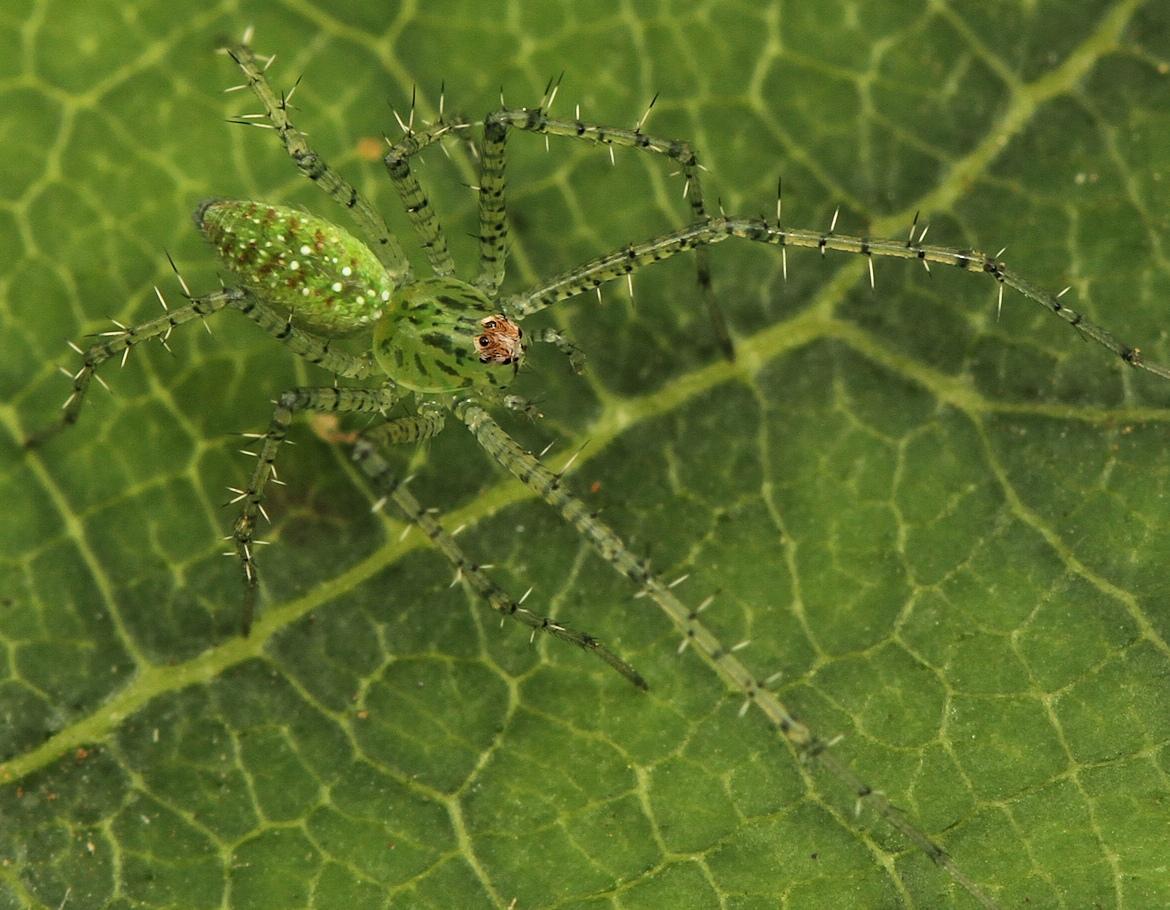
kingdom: Animalia
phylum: Arthropoda
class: Arachnida
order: Araneae
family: Oxyopidae
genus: Peucetia
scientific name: Peucetia viridis
